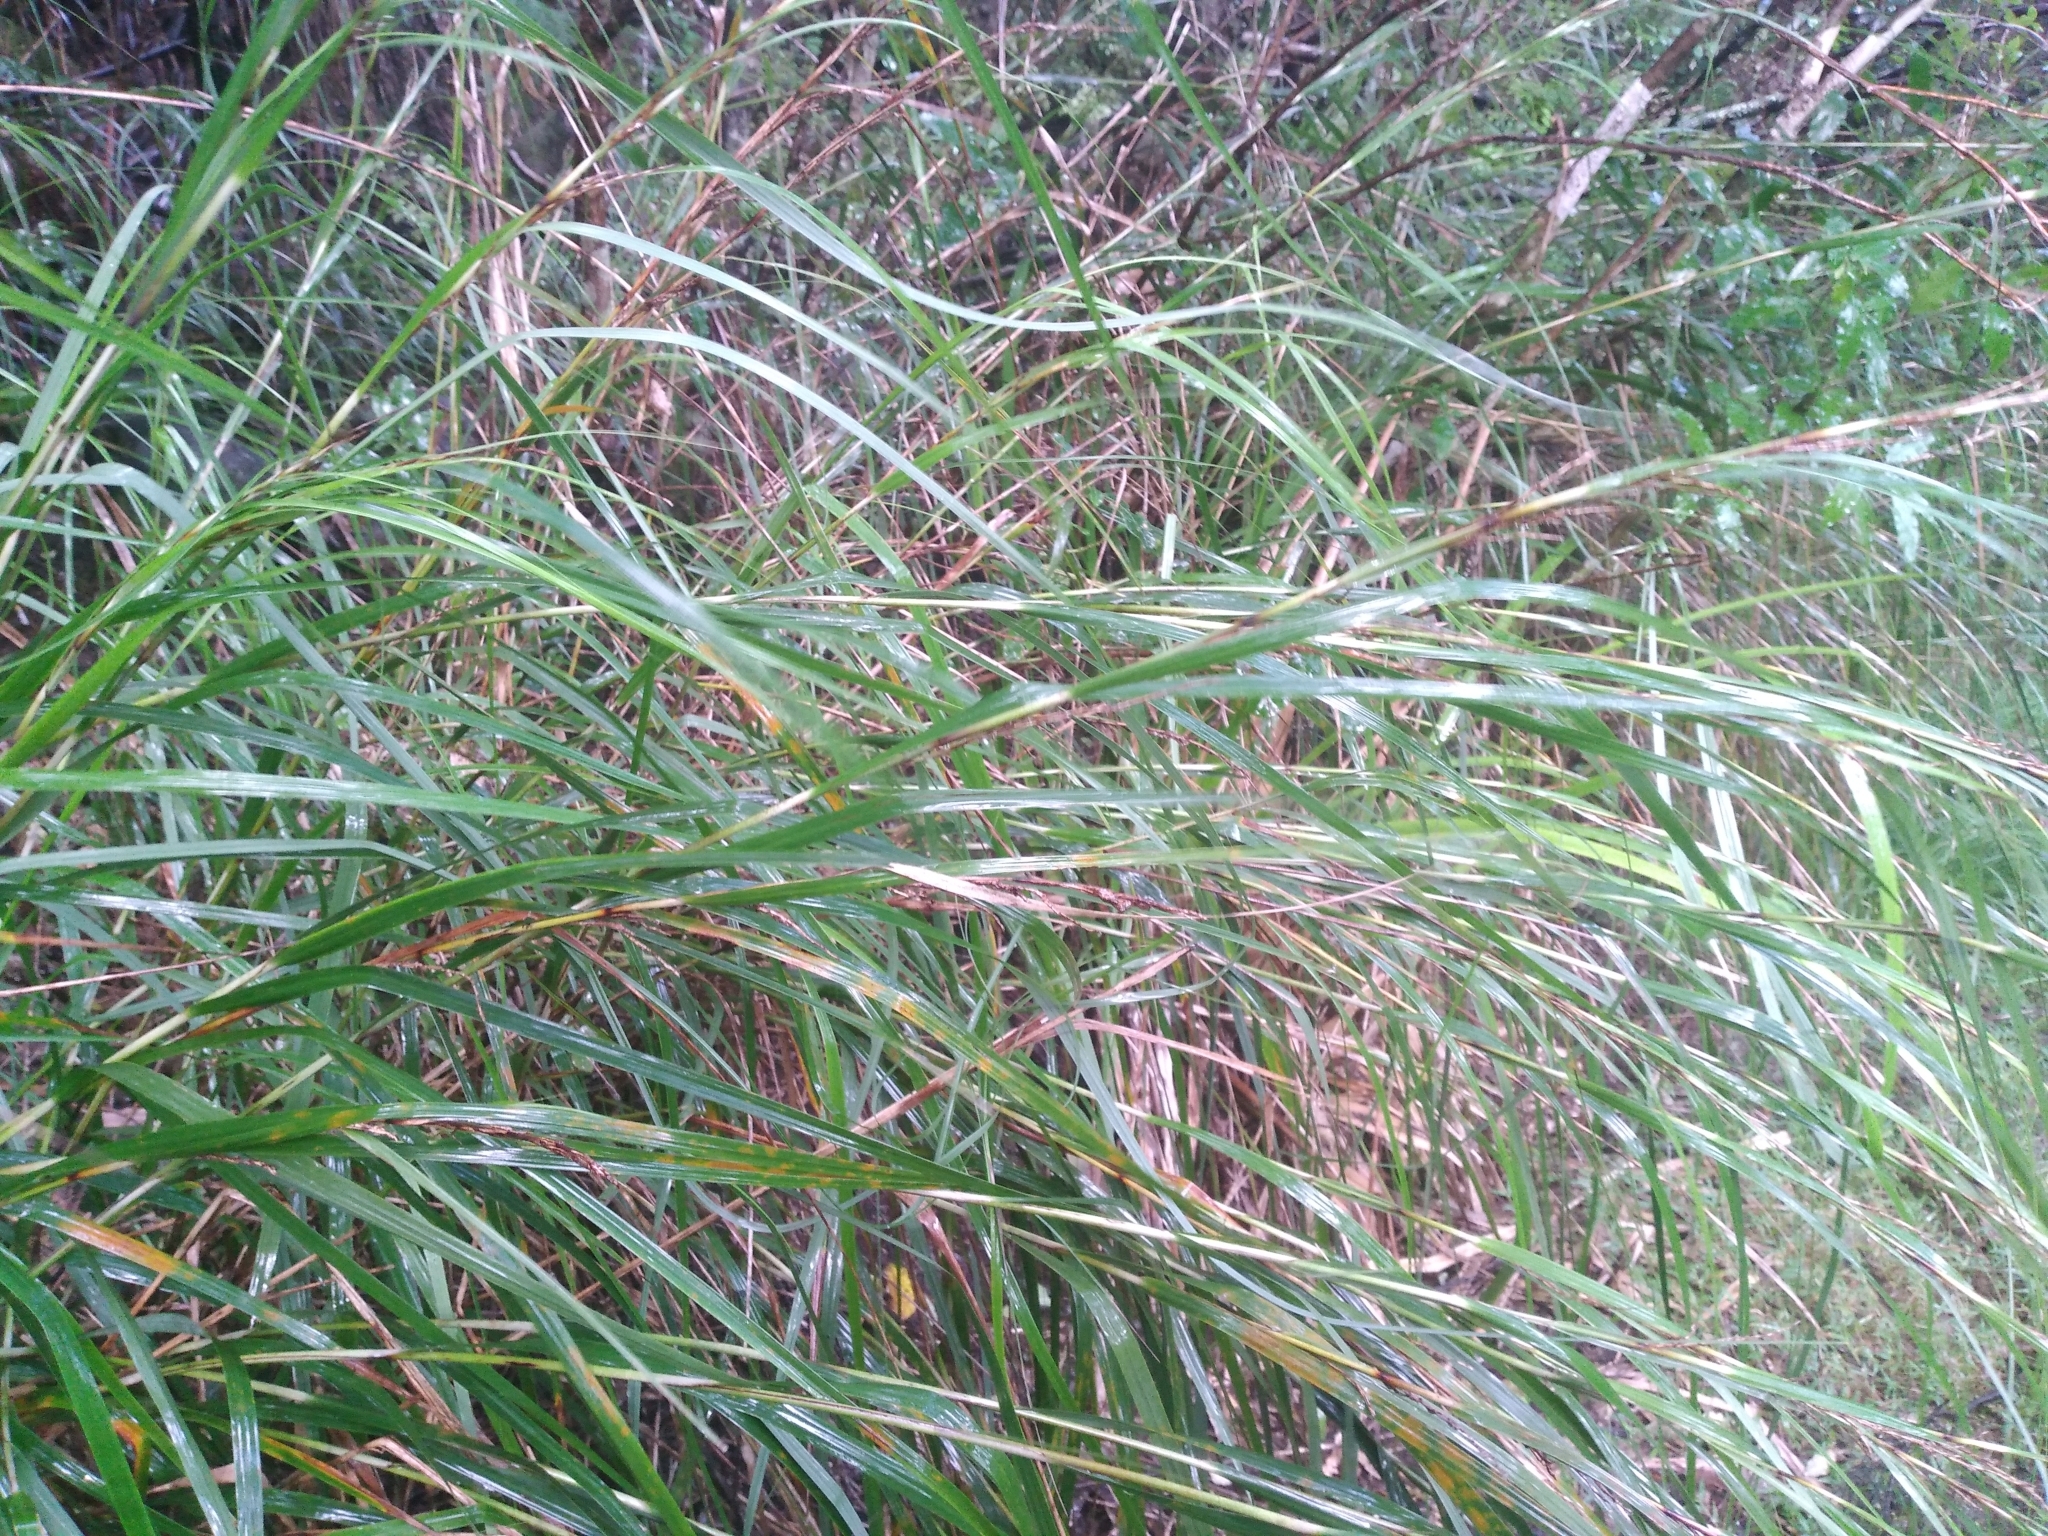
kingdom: Plantae
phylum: Tracheophyta
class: Liliopsida
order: Poales
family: Cyperaceae
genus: Gahnia
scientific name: Gahnia lacera
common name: Sawsedge
